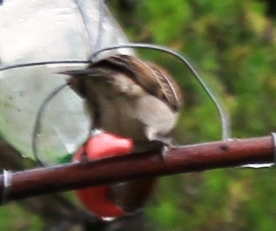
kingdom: Animalia
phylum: Chordata
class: Aves
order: Passeriformes
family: Passeridae
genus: Passer
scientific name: Passer melanurus
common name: Cape sparrow
